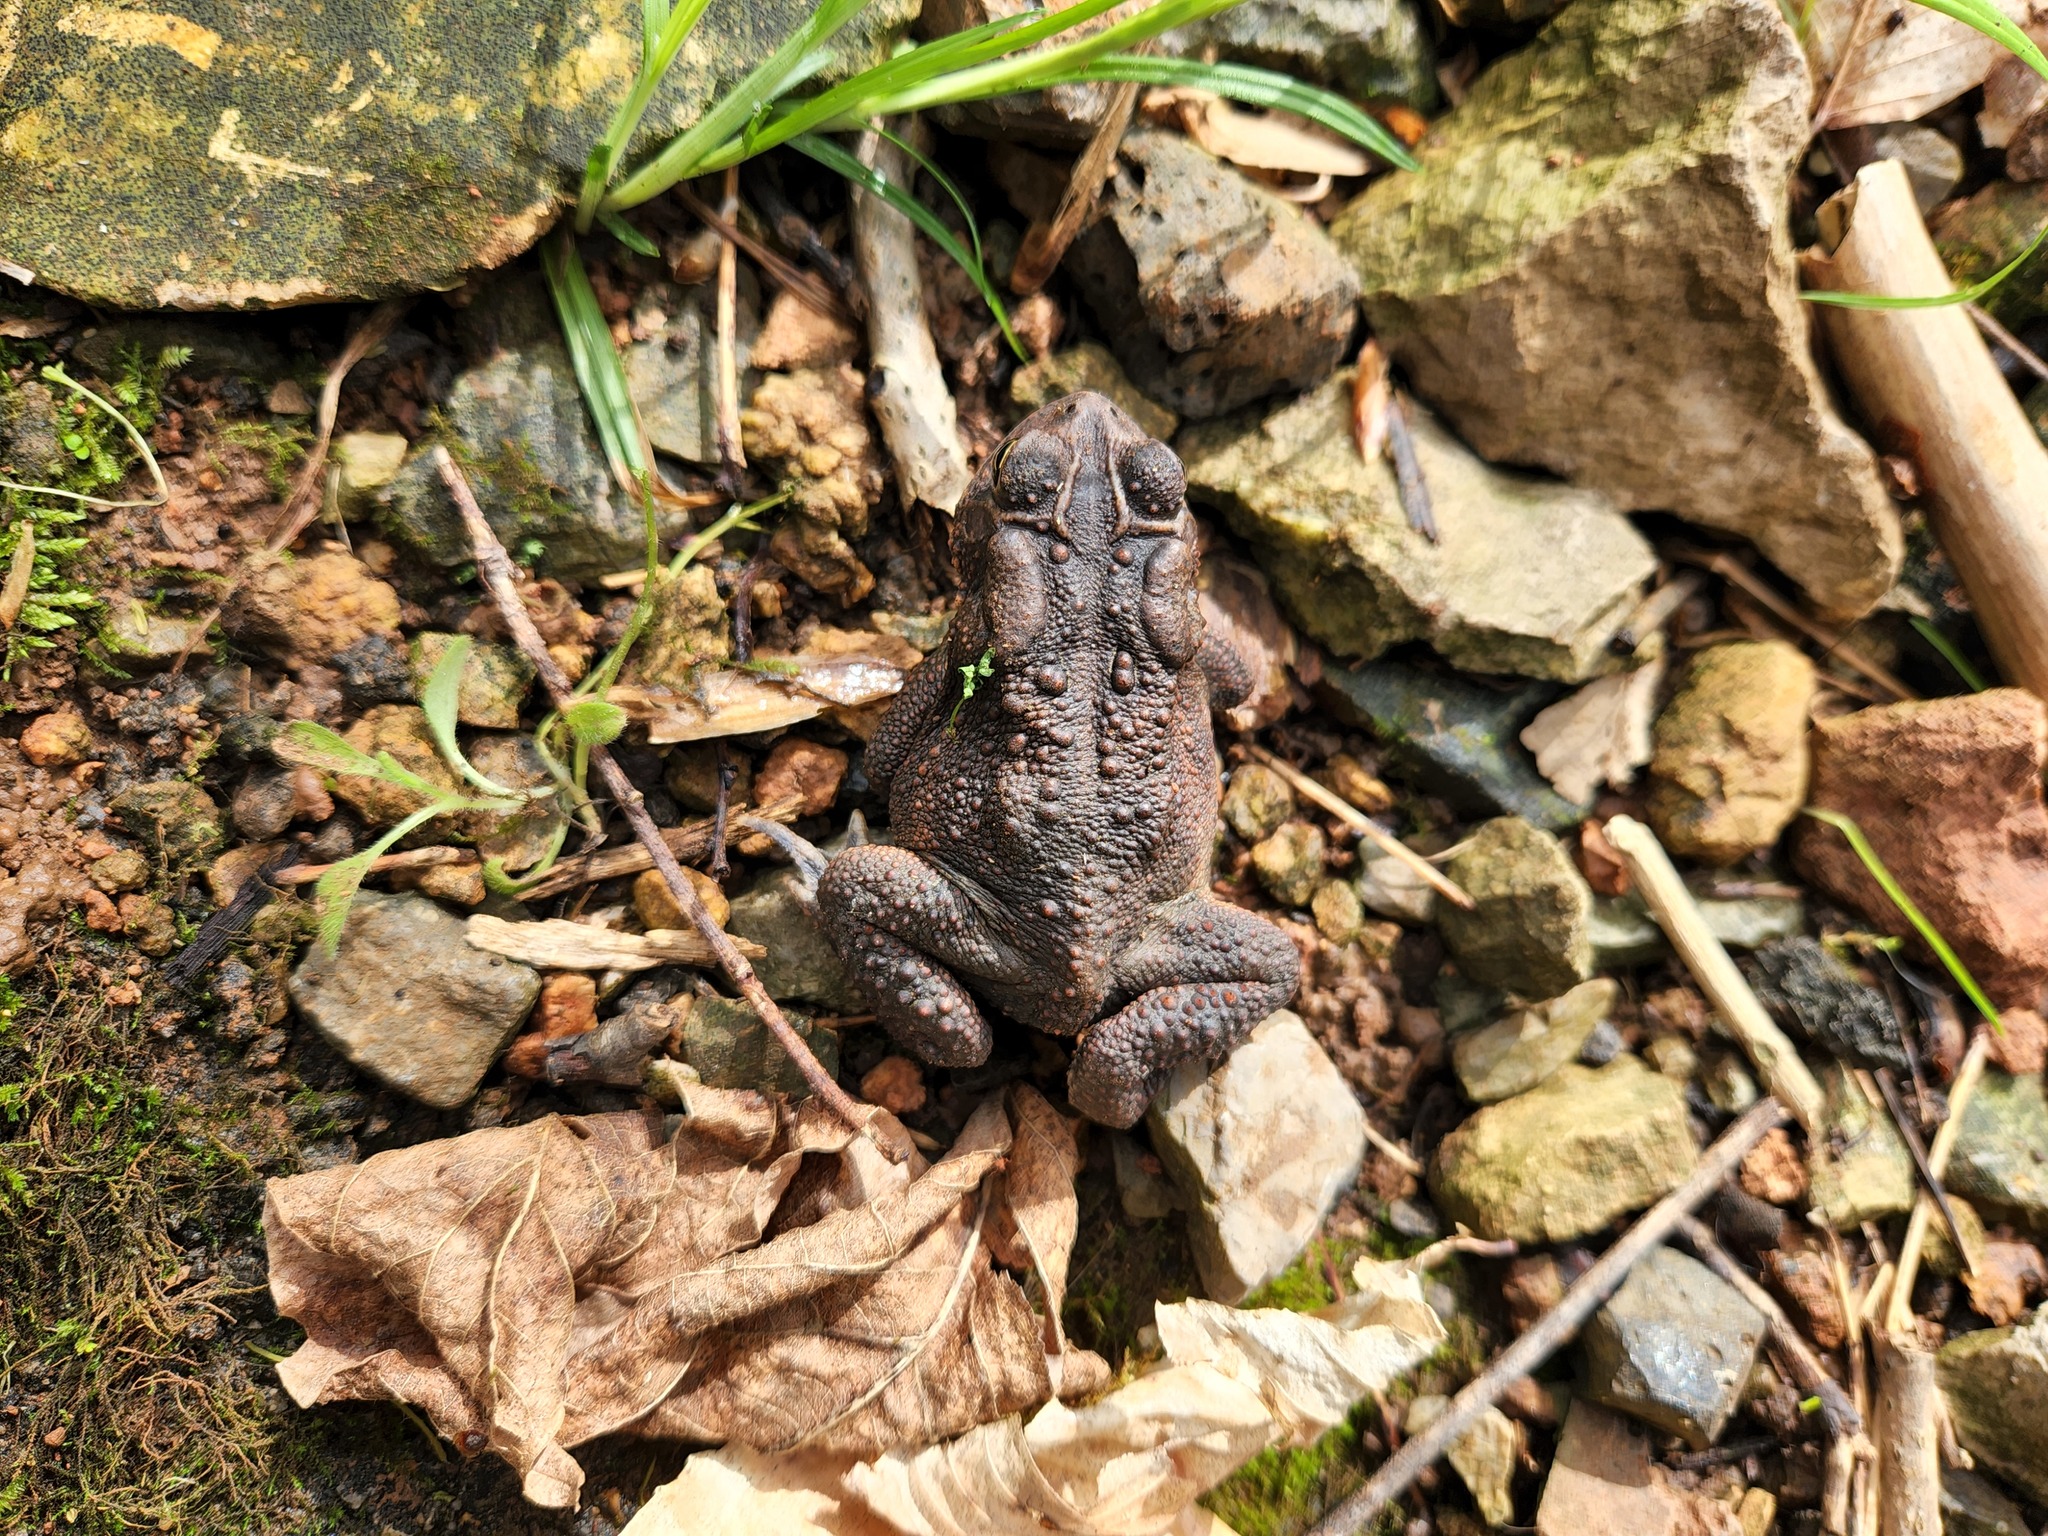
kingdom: Animalia
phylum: Chordata
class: Amphibia
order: Anura
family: Bufonidae
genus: Anaxyrus
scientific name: Anaxyrus americanus
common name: American toad
